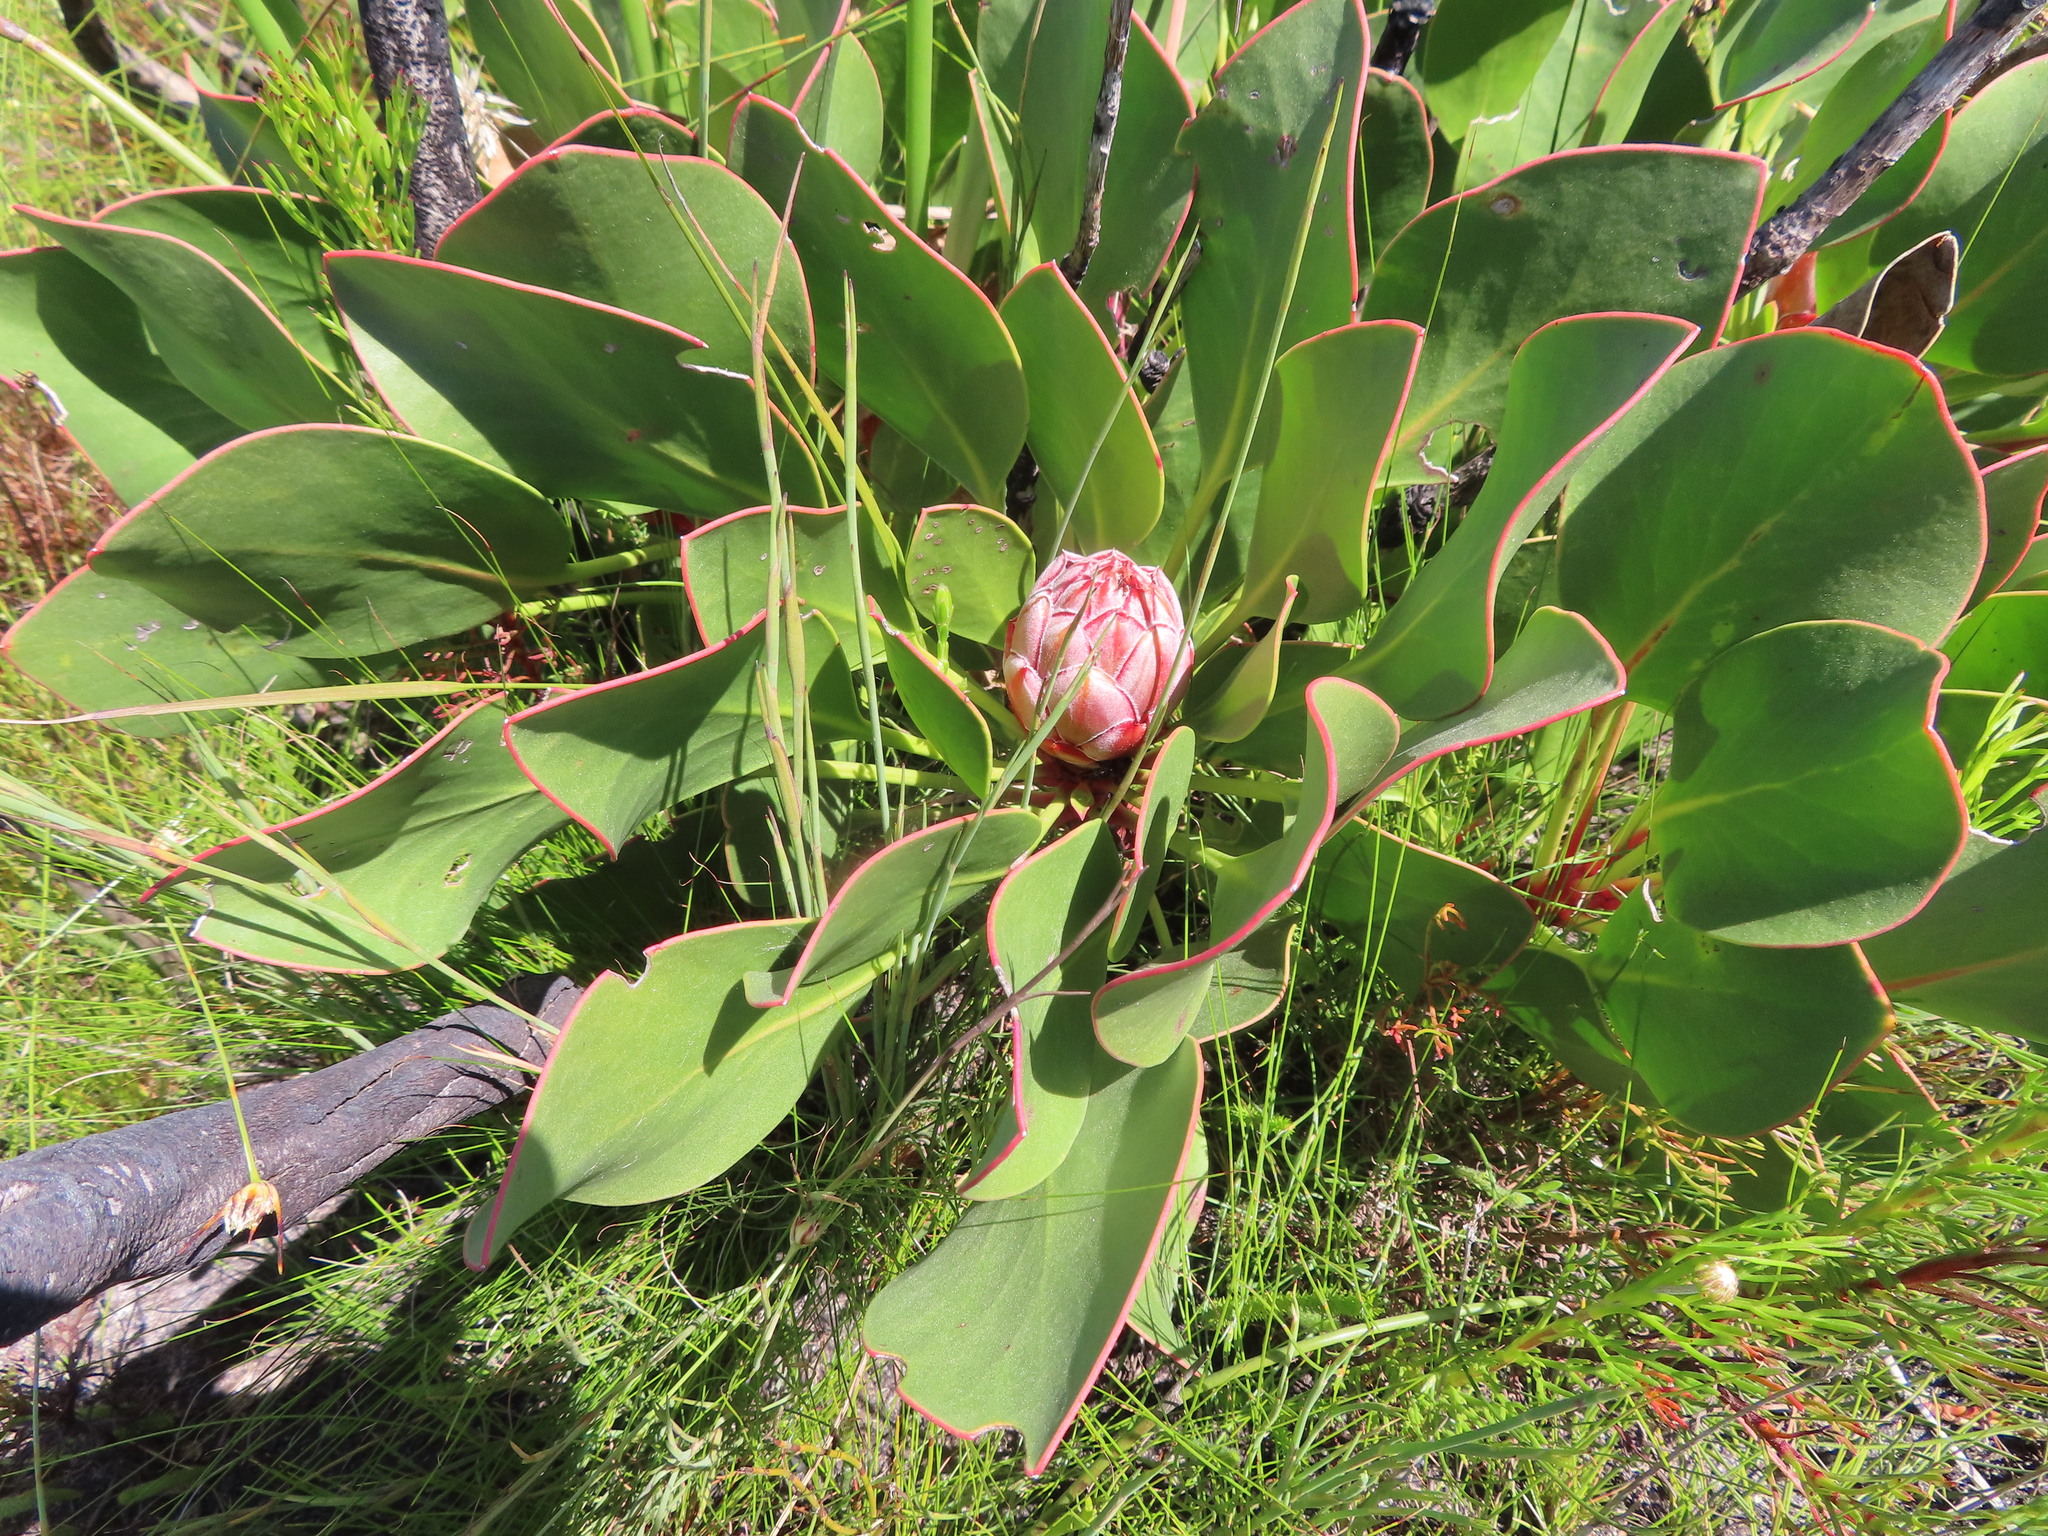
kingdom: Plantae
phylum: Tracheophyta
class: Magnoliopsida
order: Proteales
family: Proteaceae
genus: Protea
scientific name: Protea cynaroides
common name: King protea
